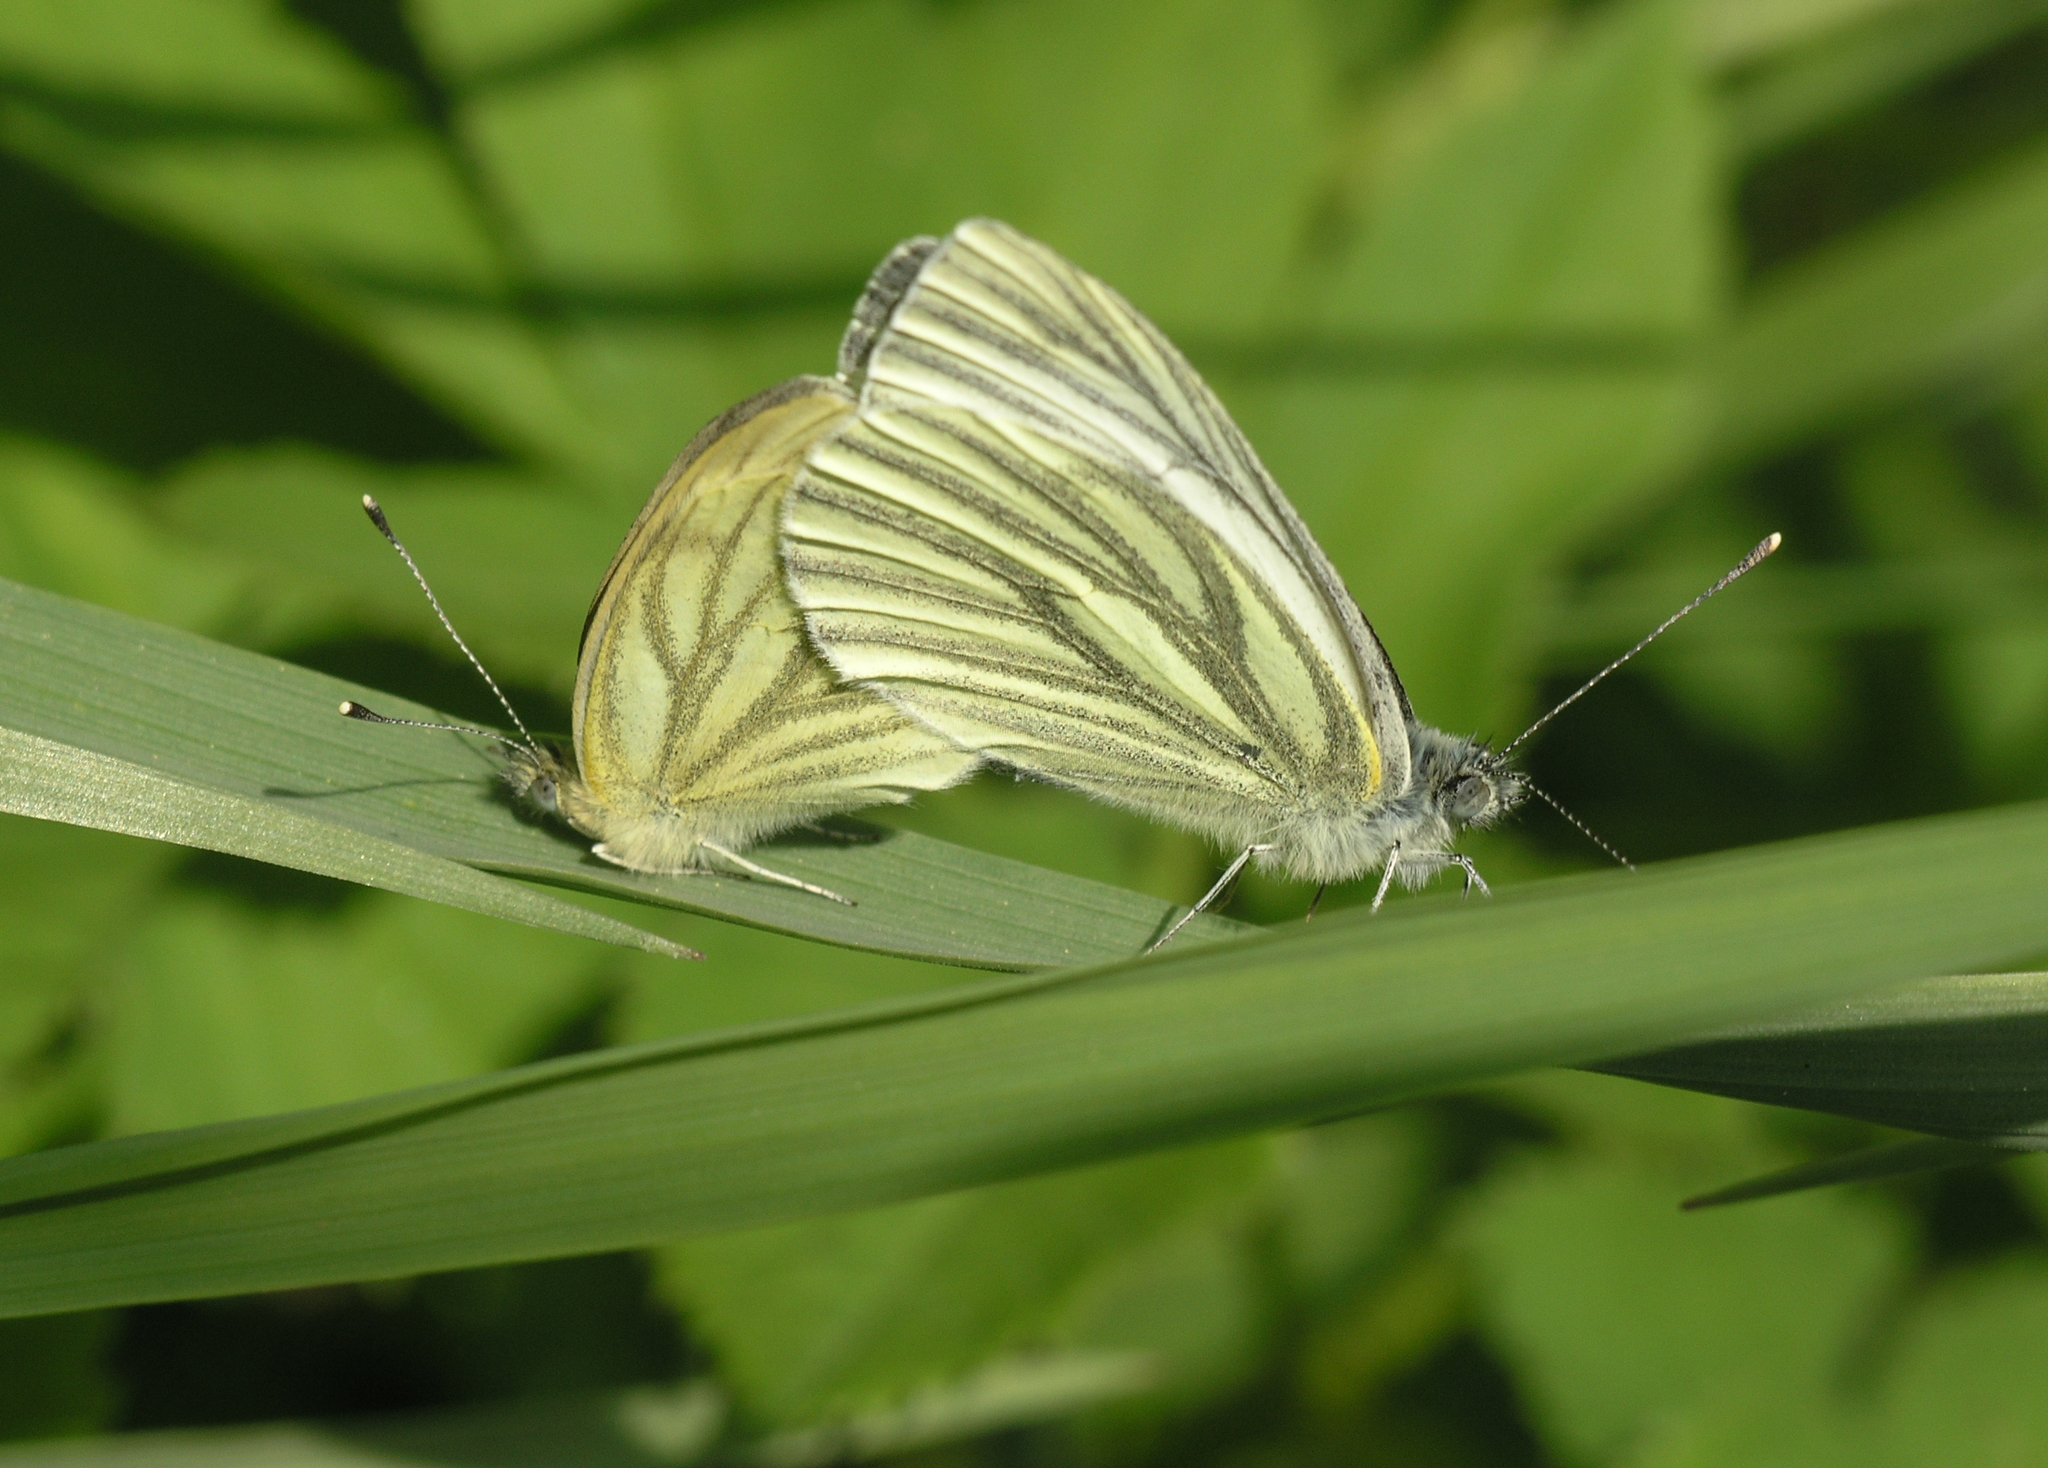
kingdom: Animalia
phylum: Arthropoda
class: Insecta
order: Lepidoptera
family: Pieridae
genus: Pieris
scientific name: Pieris napi
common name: Green-veined white
